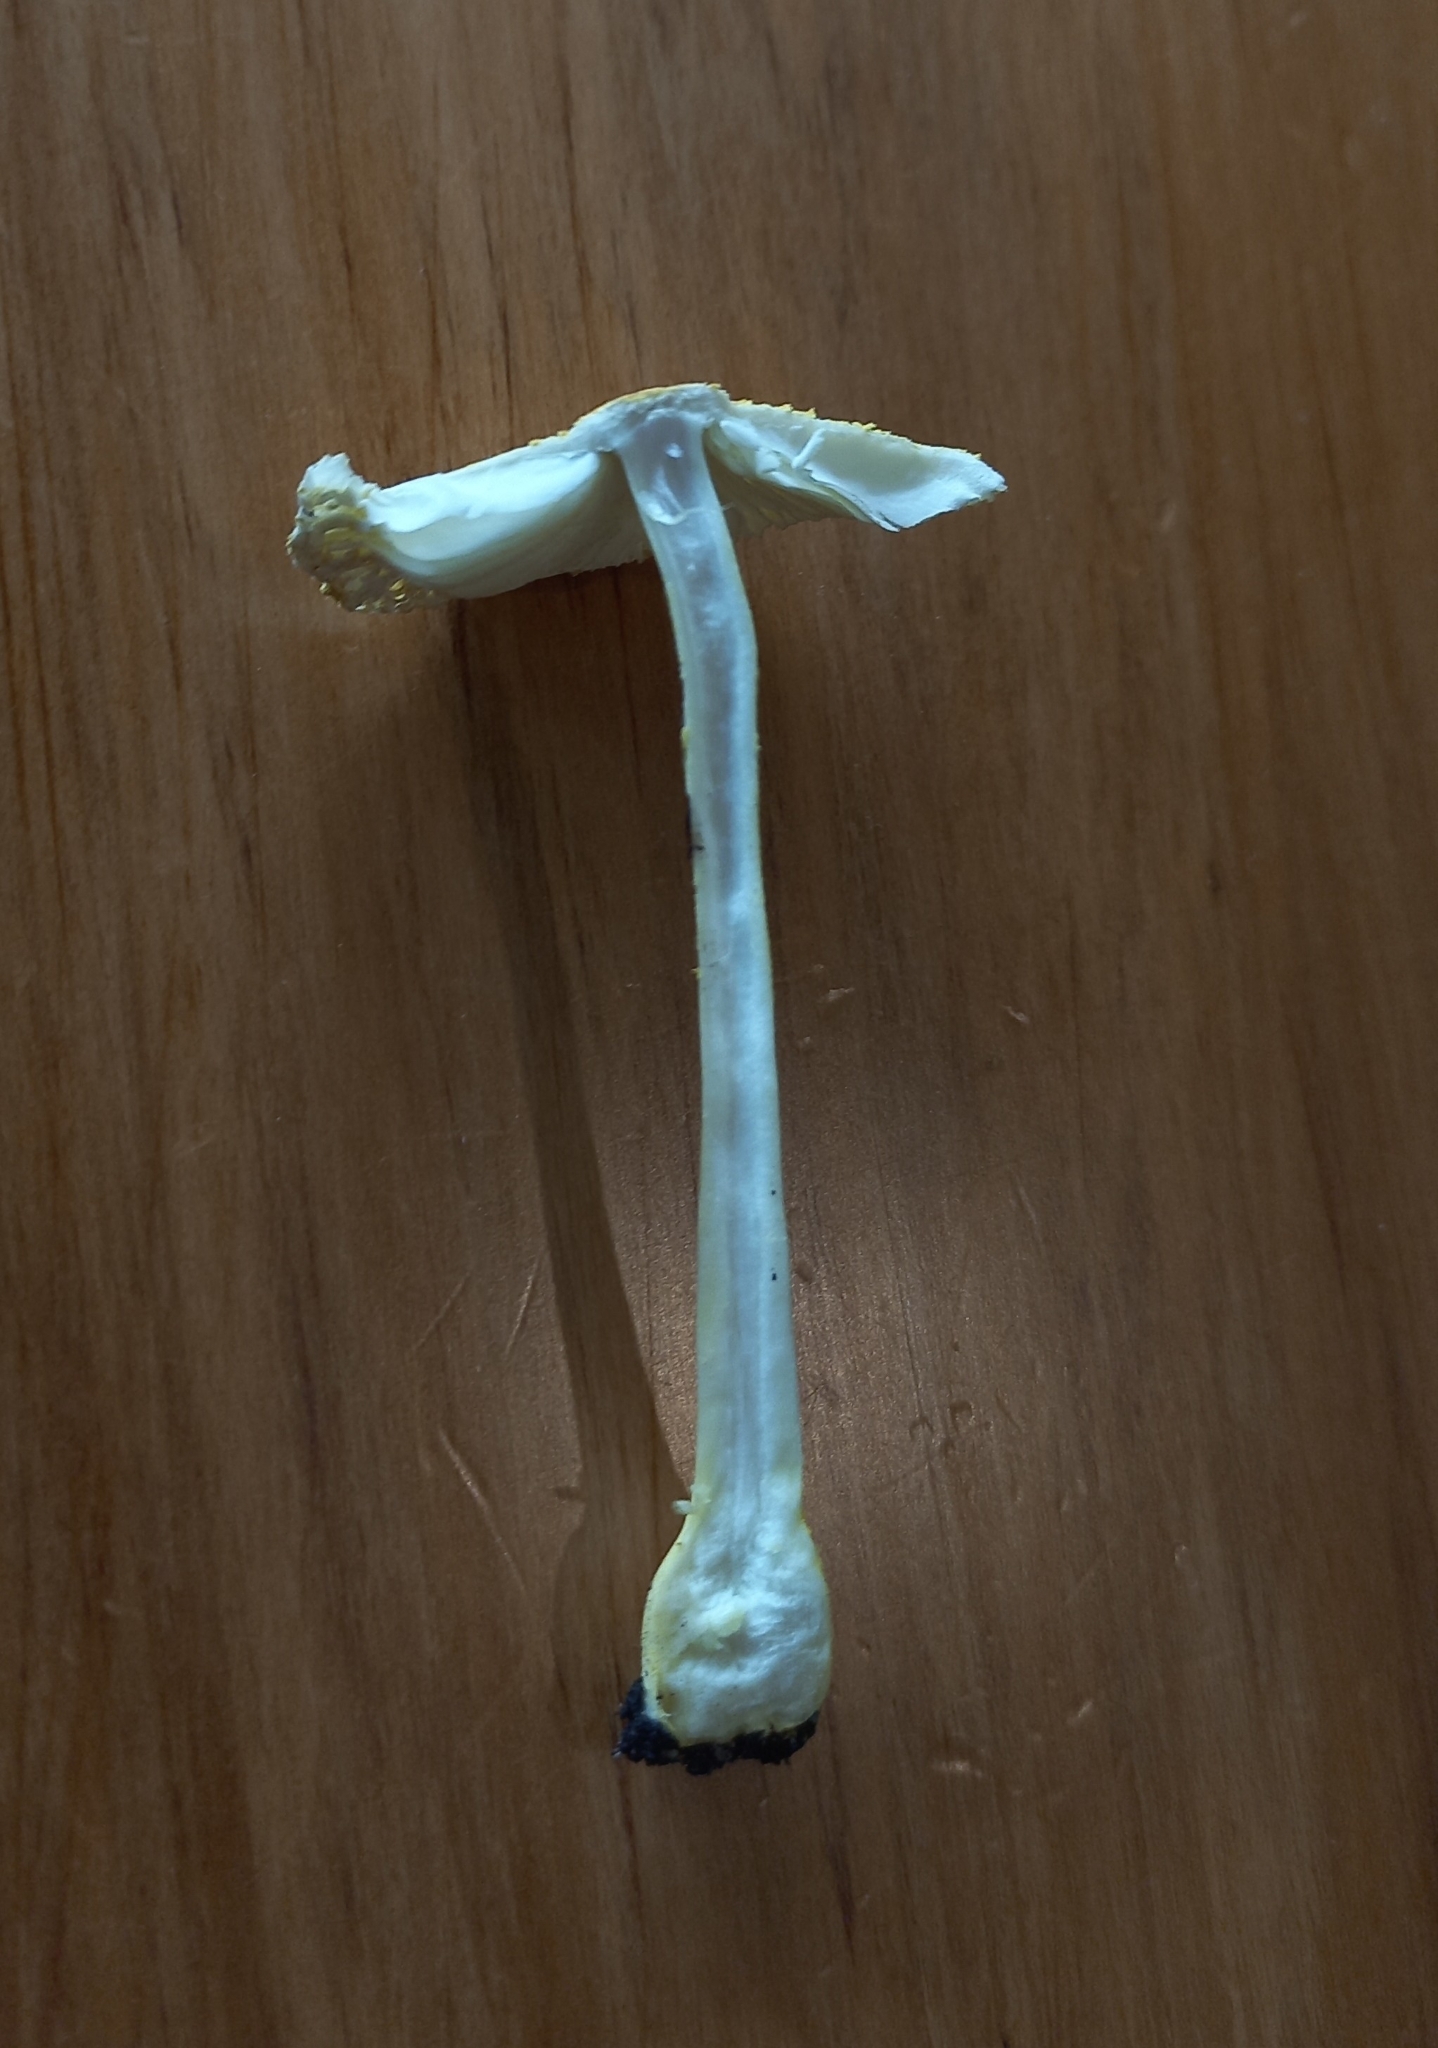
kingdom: Fungi
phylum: Basidiomycota
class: Agaricomycetes
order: Agaricales
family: Agaricaceae
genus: Leucocoprinus
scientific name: Leucocoprinus birnbaumii
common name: Plantpot dapperling
